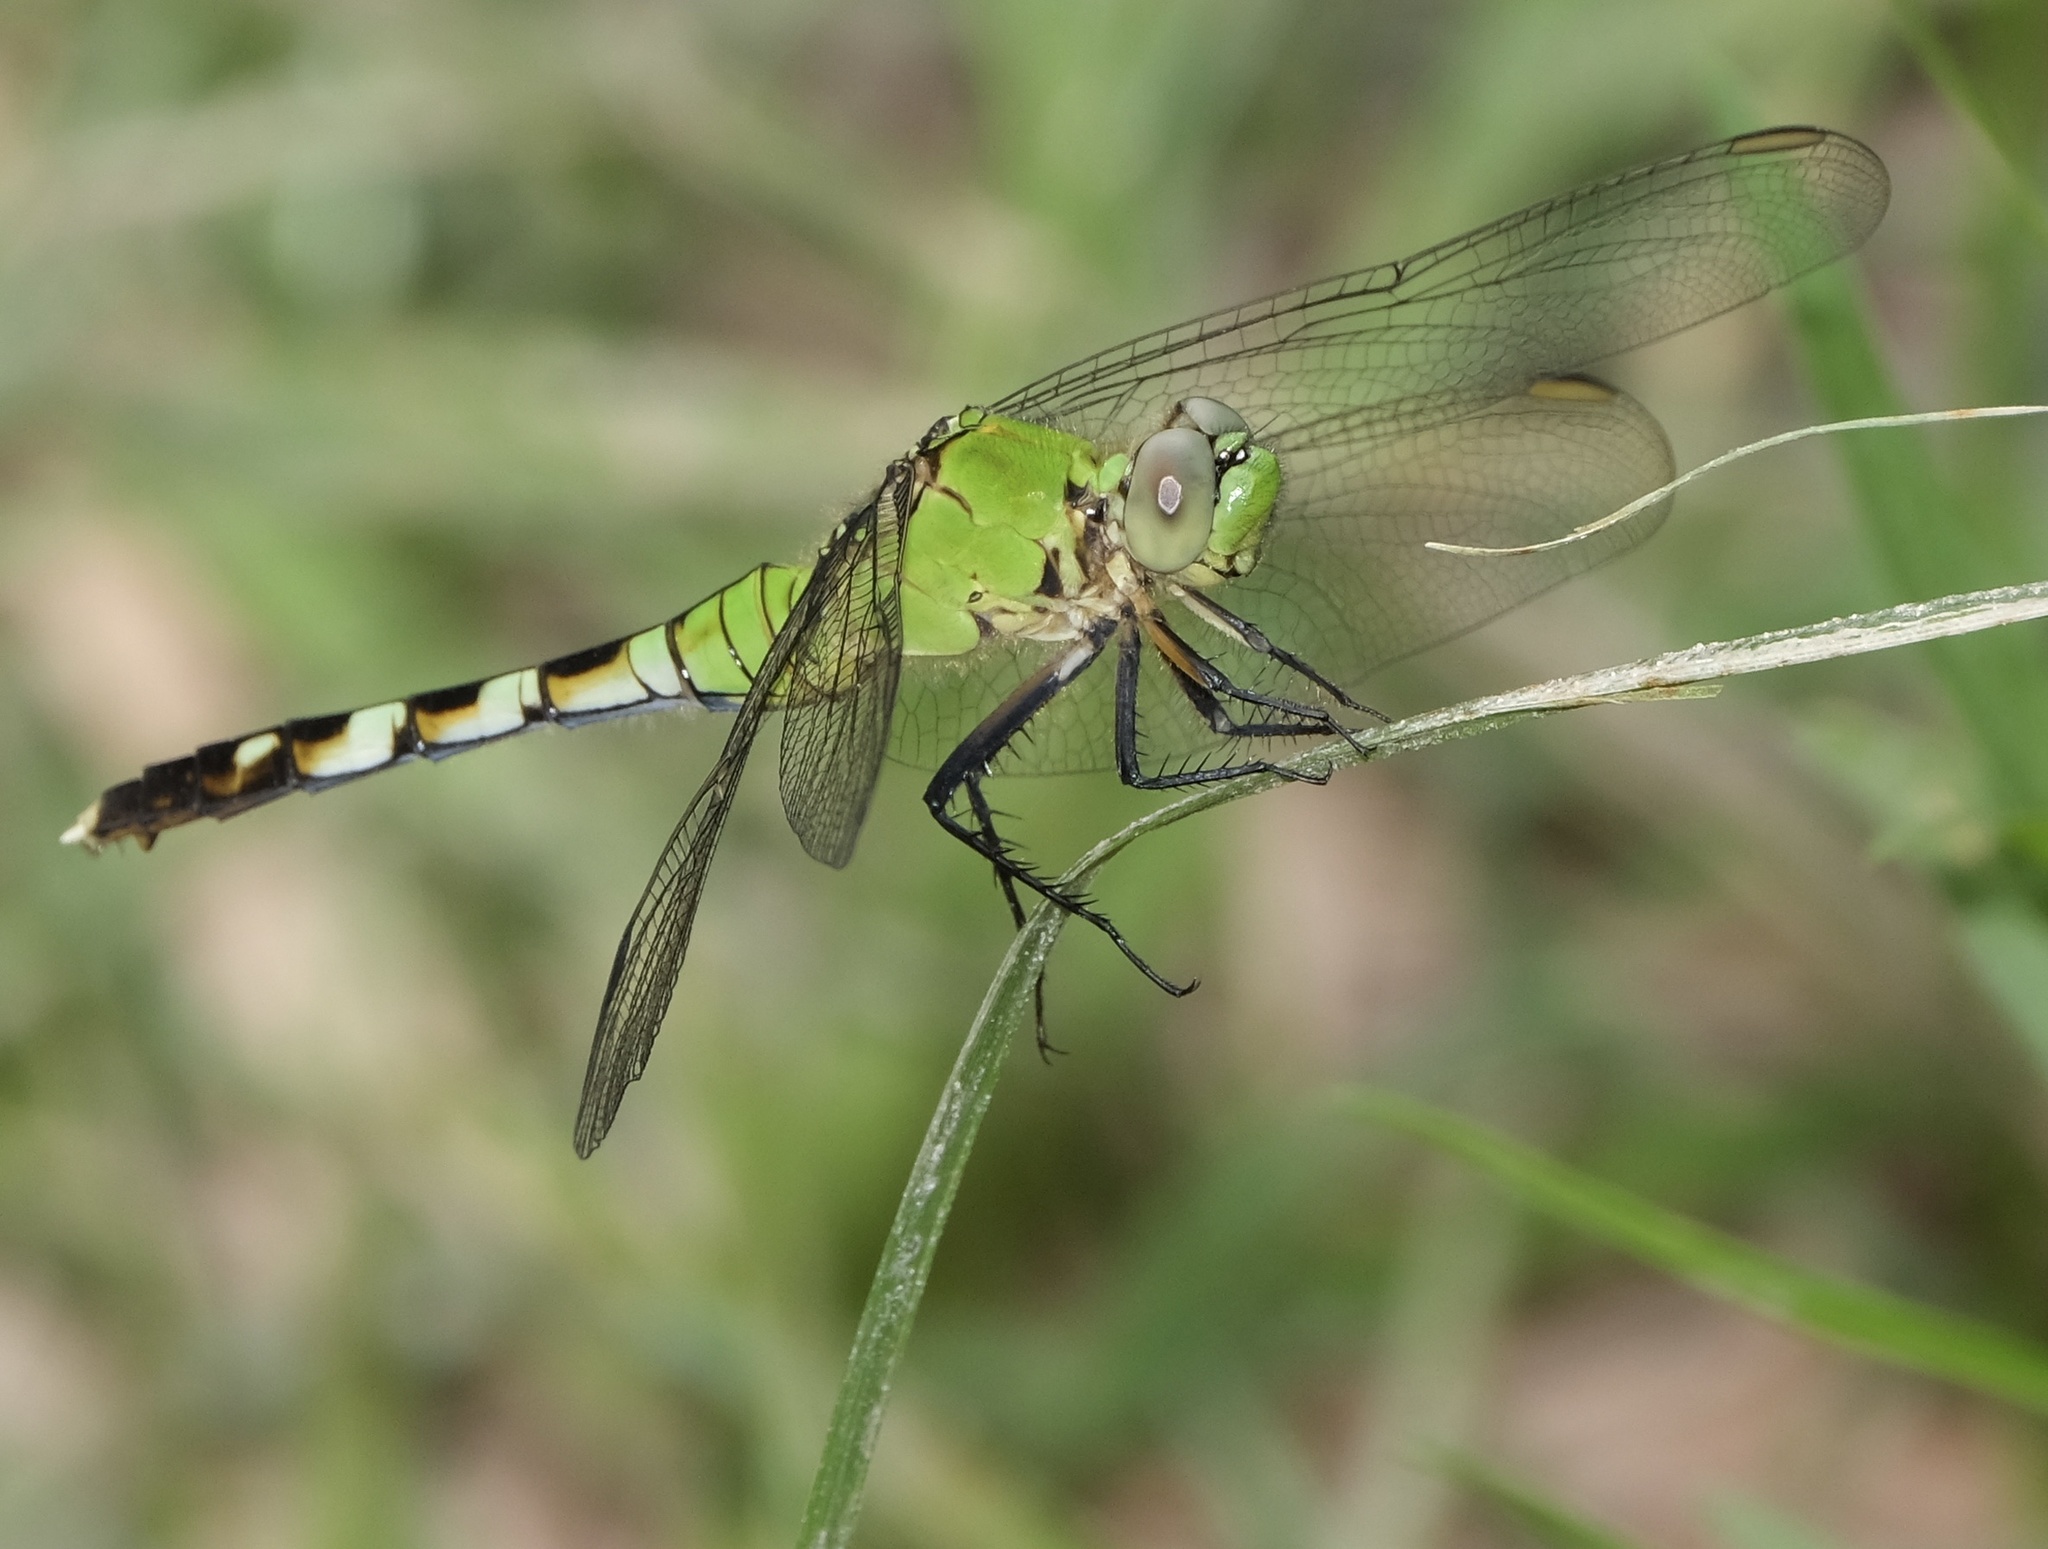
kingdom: Animalia
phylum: Arthropoda
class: Insecta
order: Odonata
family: Libellulidae
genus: Erythemis
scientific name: Erythemis simplicicollis
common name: Eastern pondhawk
